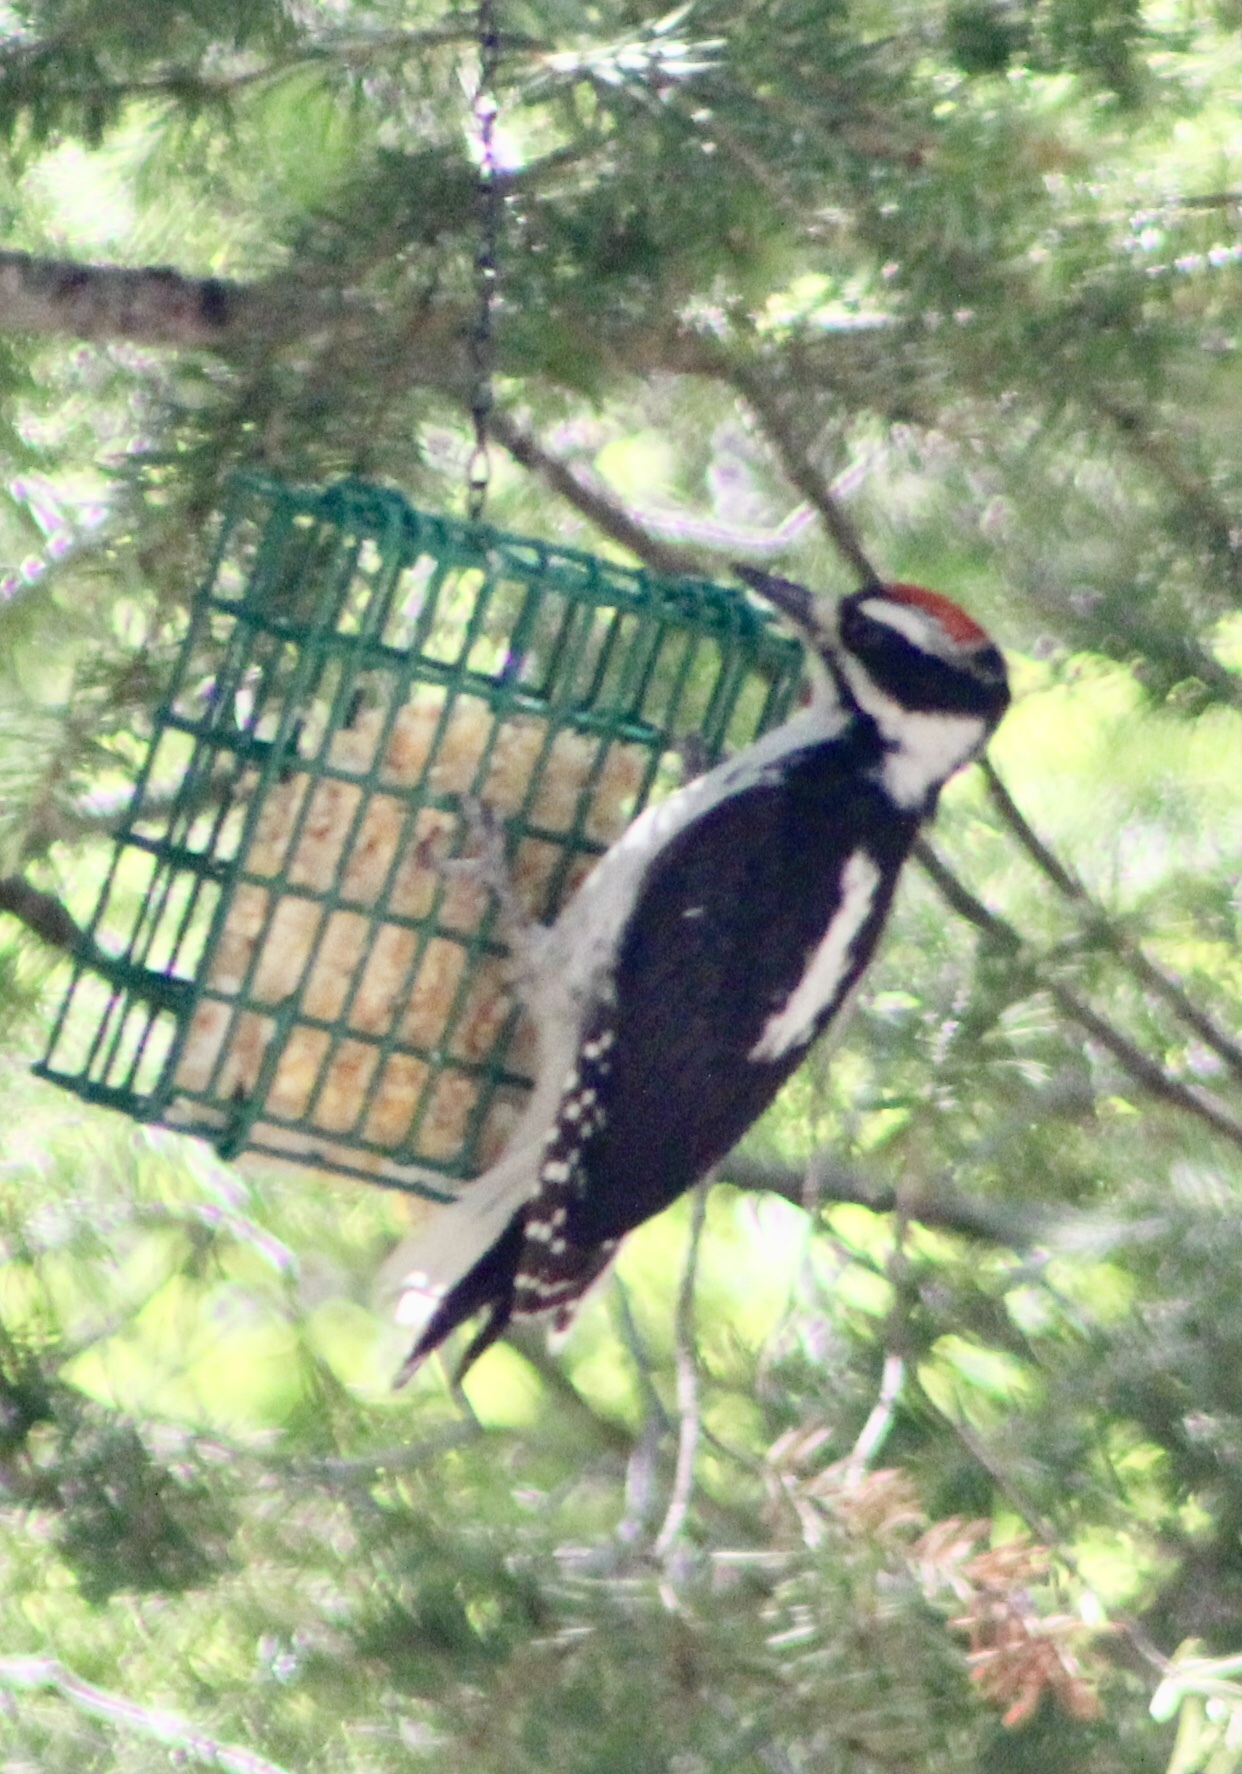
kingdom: Animalia
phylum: Chordata
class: Aves
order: Piciformes
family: Picidae
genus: Leuconotopicus
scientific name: Leuconotopicus villosus
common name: Hairy woodpecker
